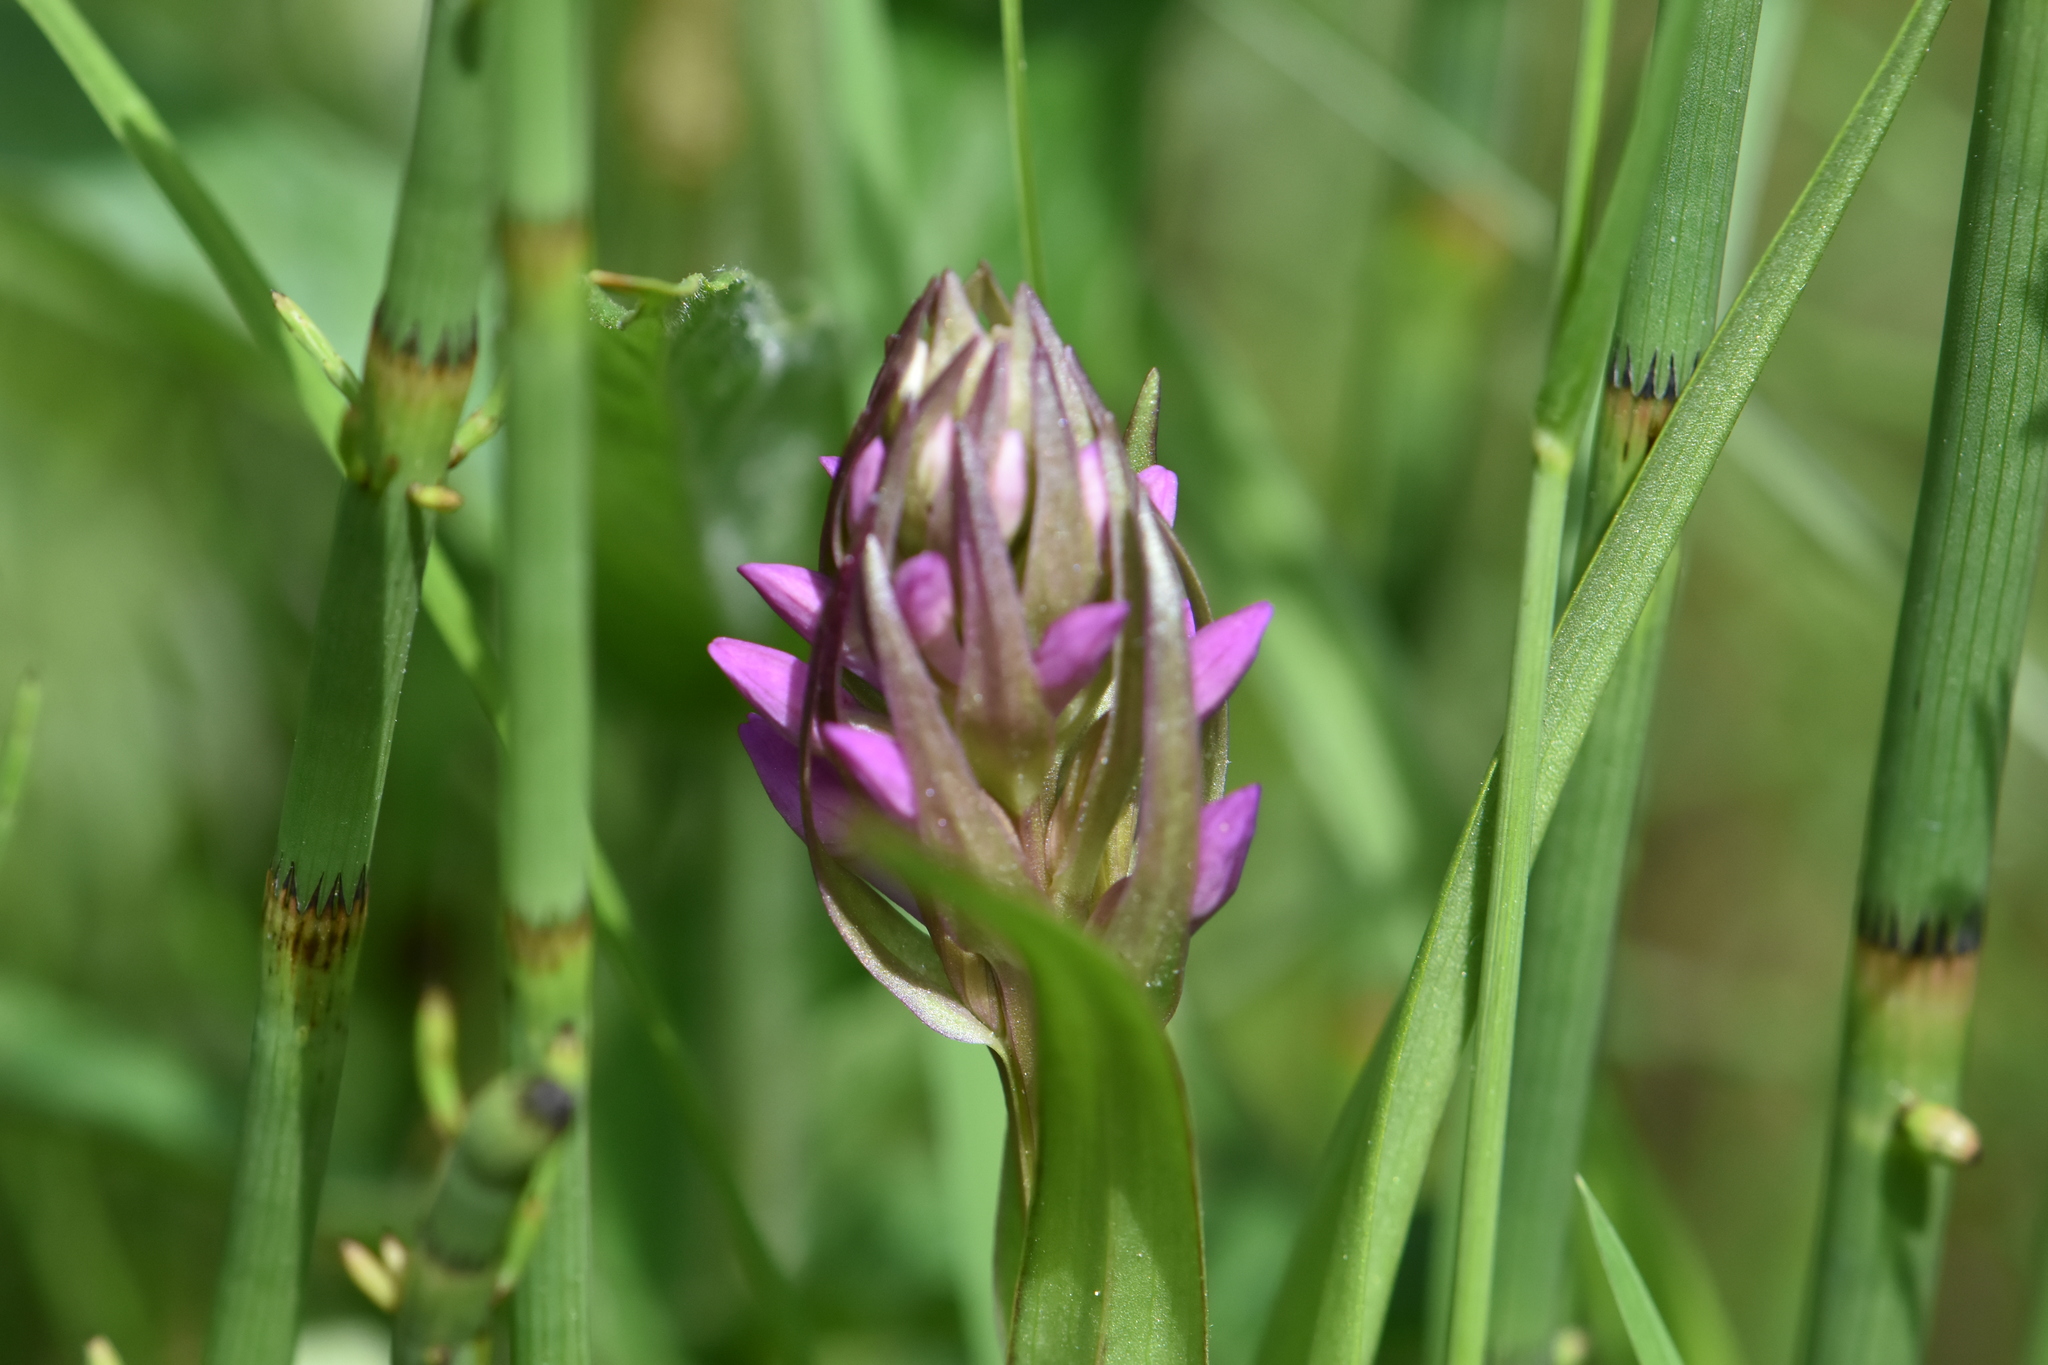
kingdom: Plantae
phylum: Tracheophyta
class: Liliopsida
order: Asparagales
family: Orchidaceae
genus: Dactylorhiza
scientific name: Dactylorhiza incarnata
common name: Early marsh-orchid
